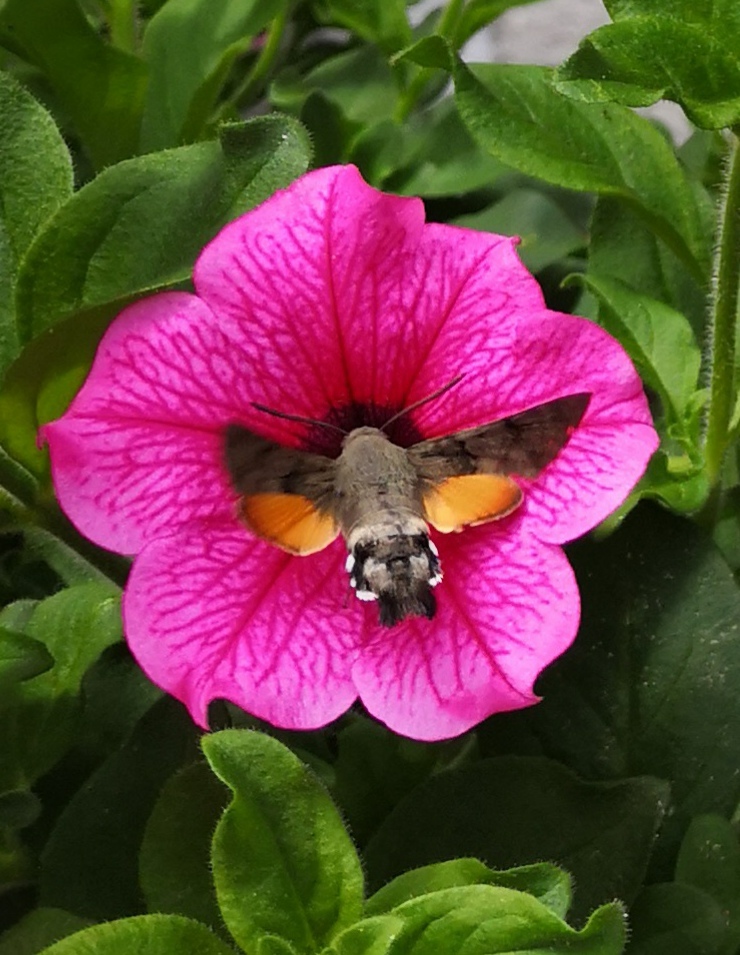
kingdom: Animalia
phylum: Arthropoda
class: Insecta
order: Lepidoptera
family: Sphingidae
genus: Macroglossum
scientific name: Macroglossum stellatarum
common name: Humming-bird hawk-moth
